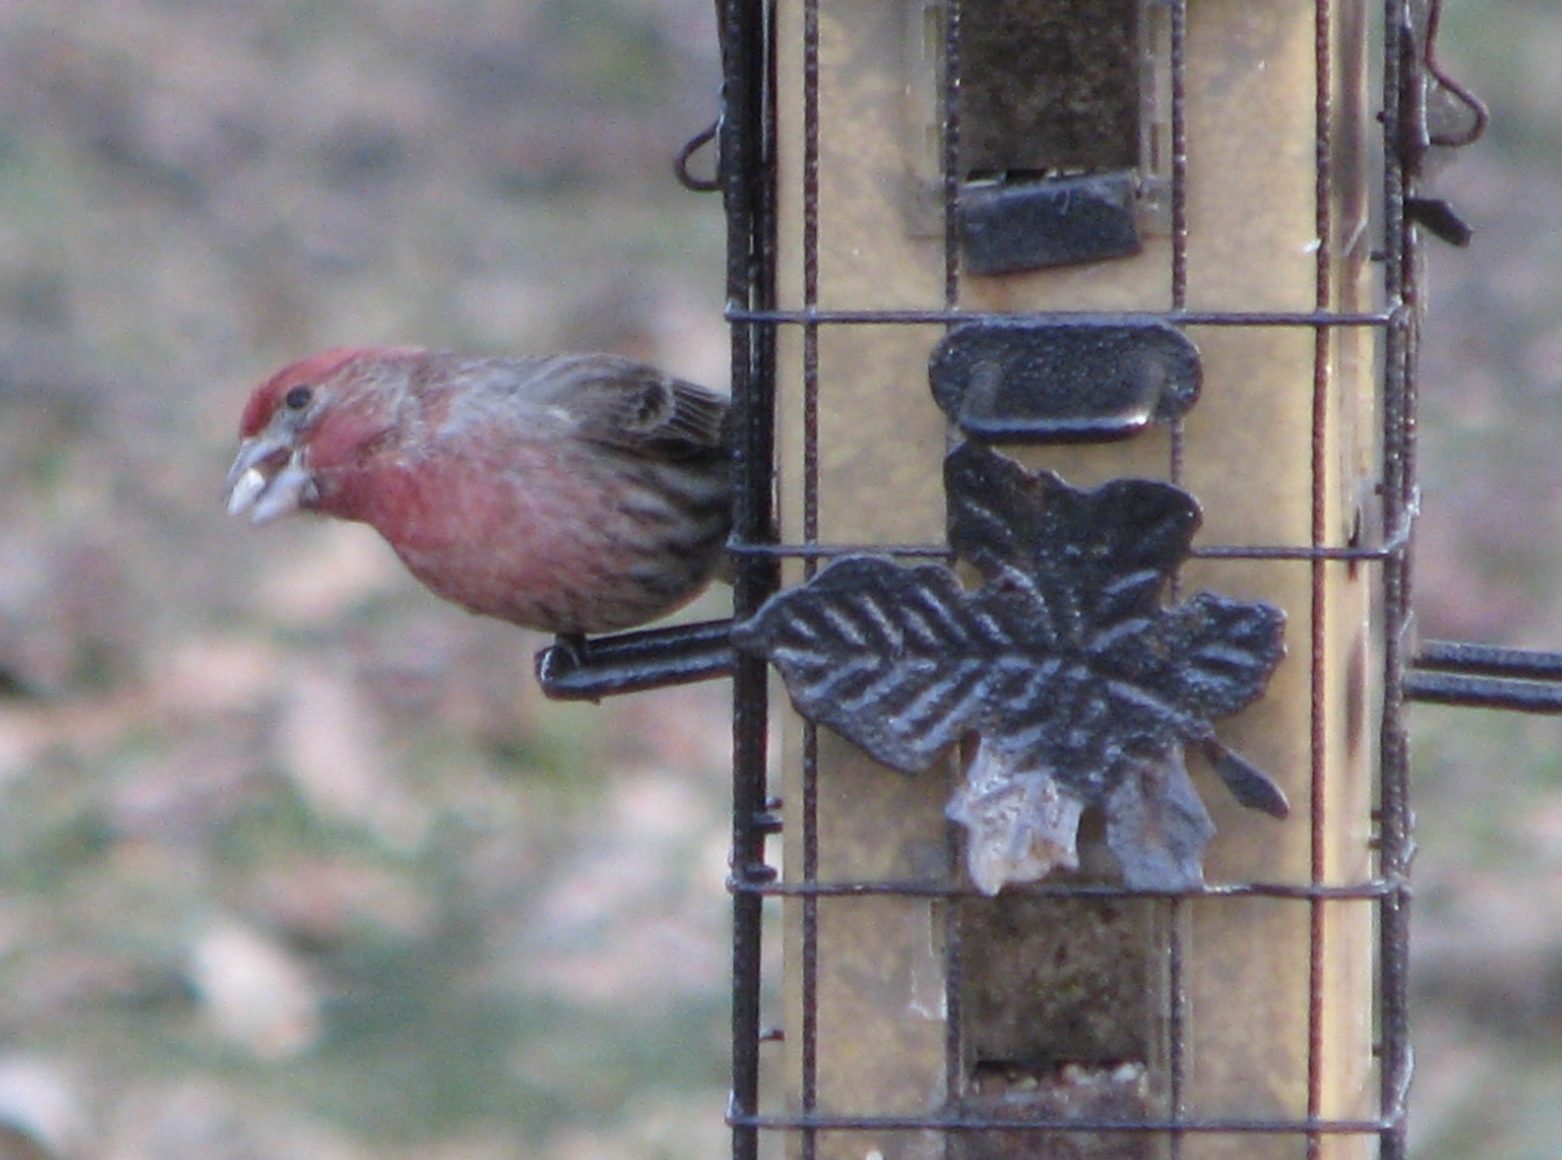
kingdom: Animalia
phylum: Chordata
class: Aves
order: Passeriformes
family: Fringillidae
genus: Haemorhous
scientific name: Haemorhous mexicanus
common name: House finch
